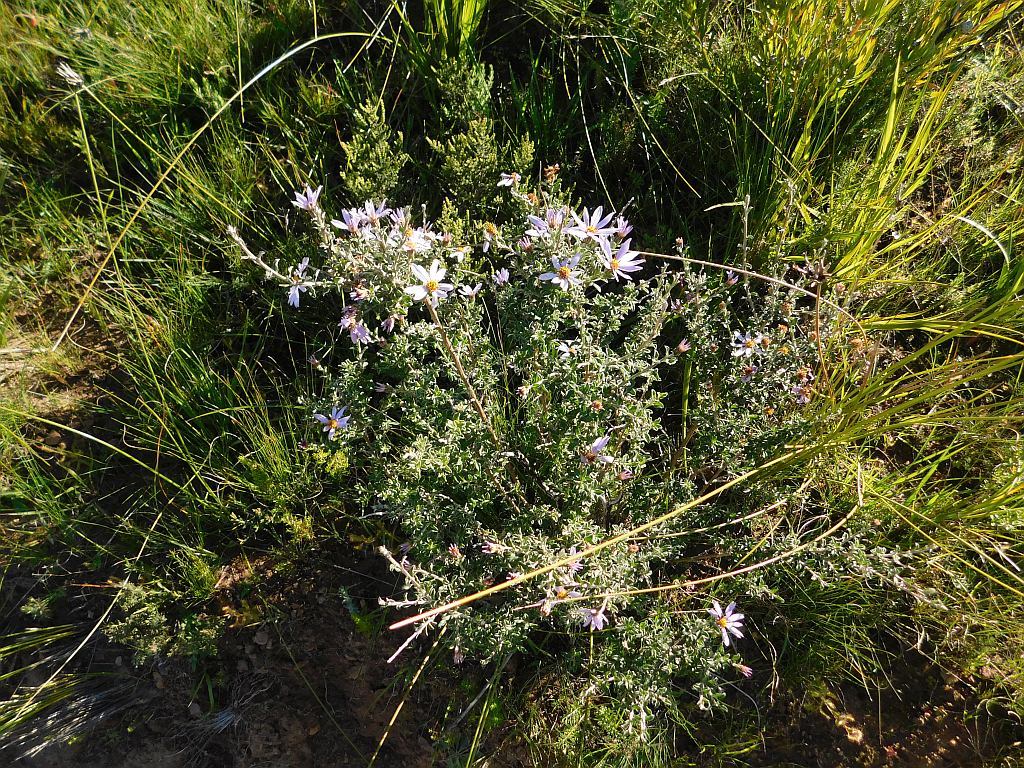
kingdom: Plantae
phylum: Tracheophyta
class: Magnoliopsida
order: Asterales
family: Asteraceae
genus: Printzia
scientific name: Printzia polifolia
